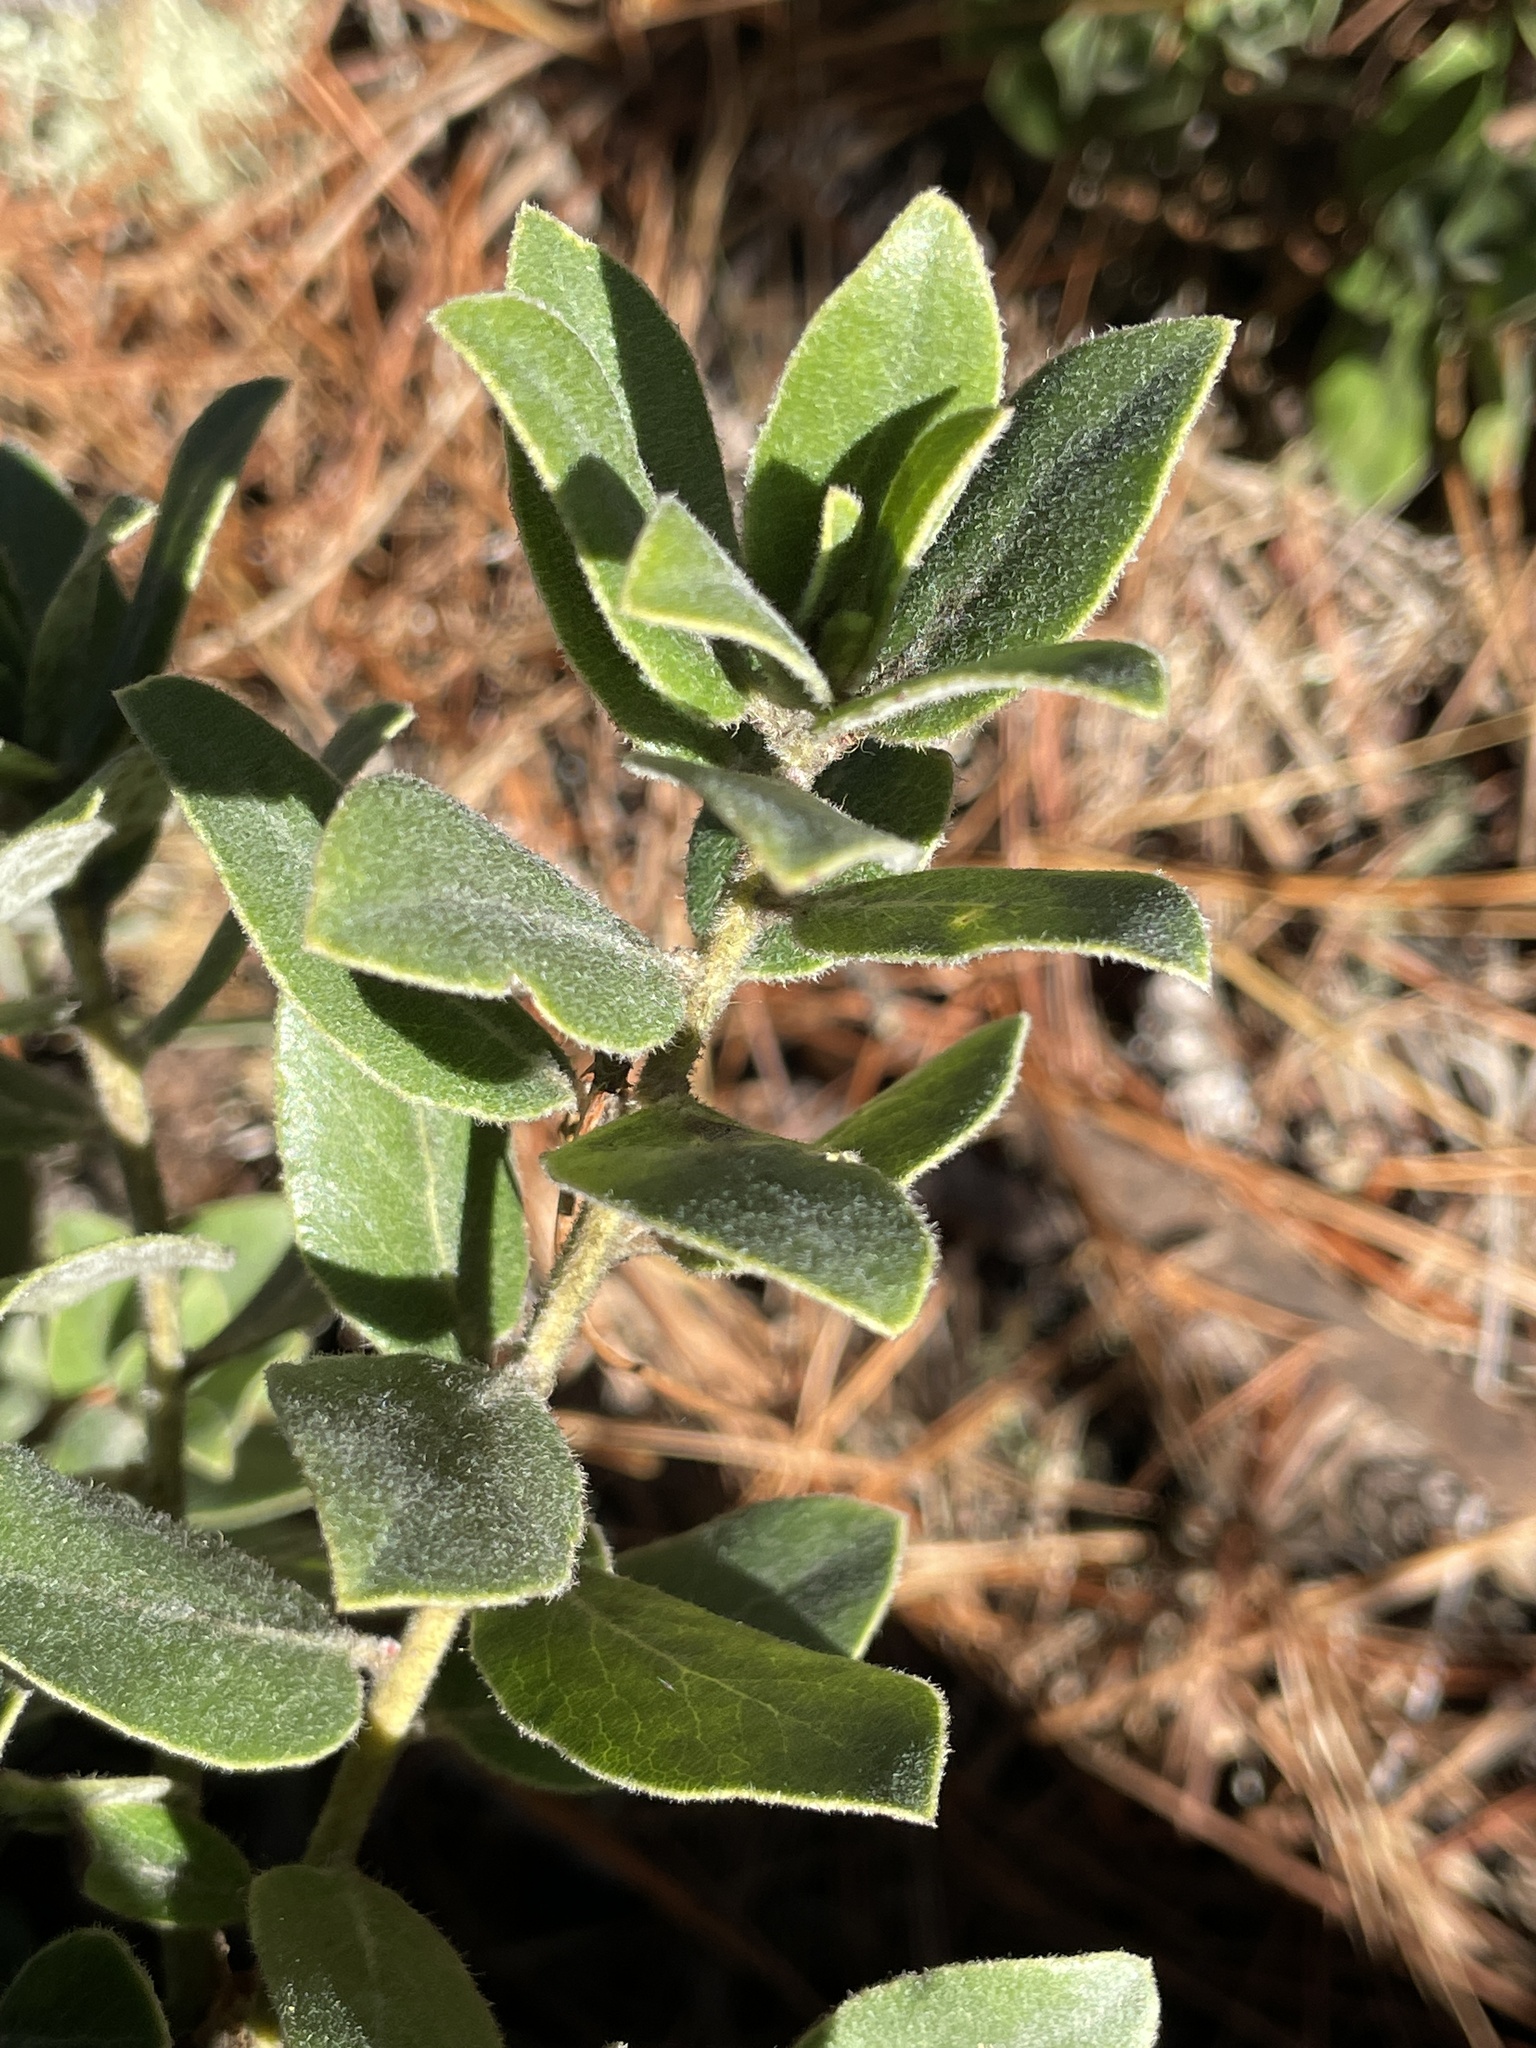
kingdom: Plantae
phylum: Tracheophyta
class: Magnoliopsida
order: Ericales
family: Ericaceae
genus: Arctostaphylos
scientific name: Arctostaphylos tomentosa
